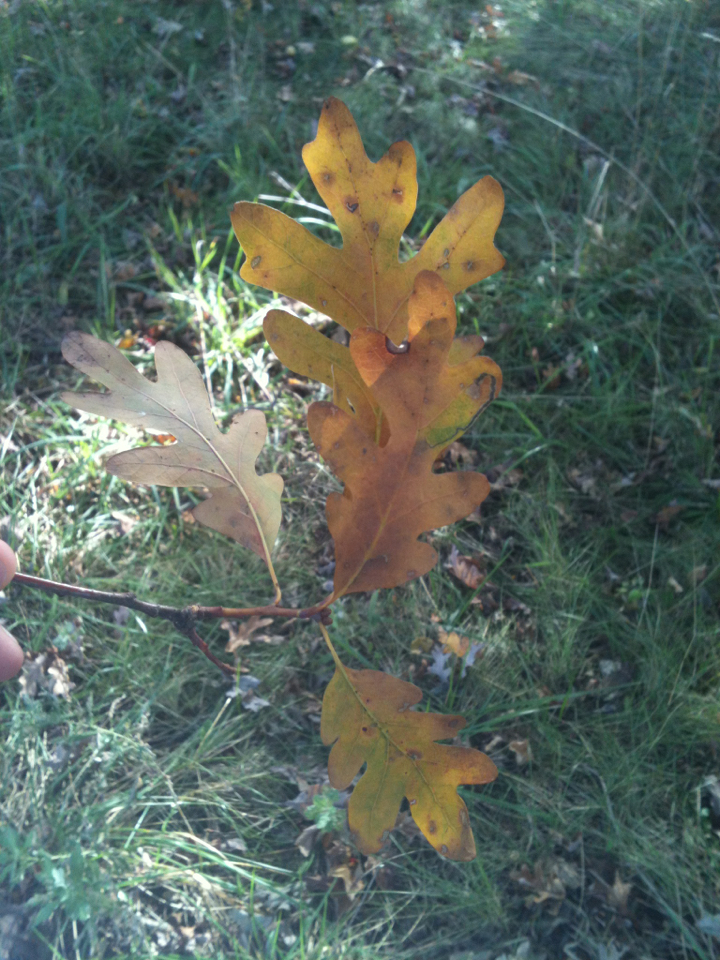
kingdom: Plantae
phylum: Tracheophyta
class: Magnoliopsida
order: Fagales
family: Fagaceae
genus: Quercus
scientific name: Quercus alba
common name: White oak
